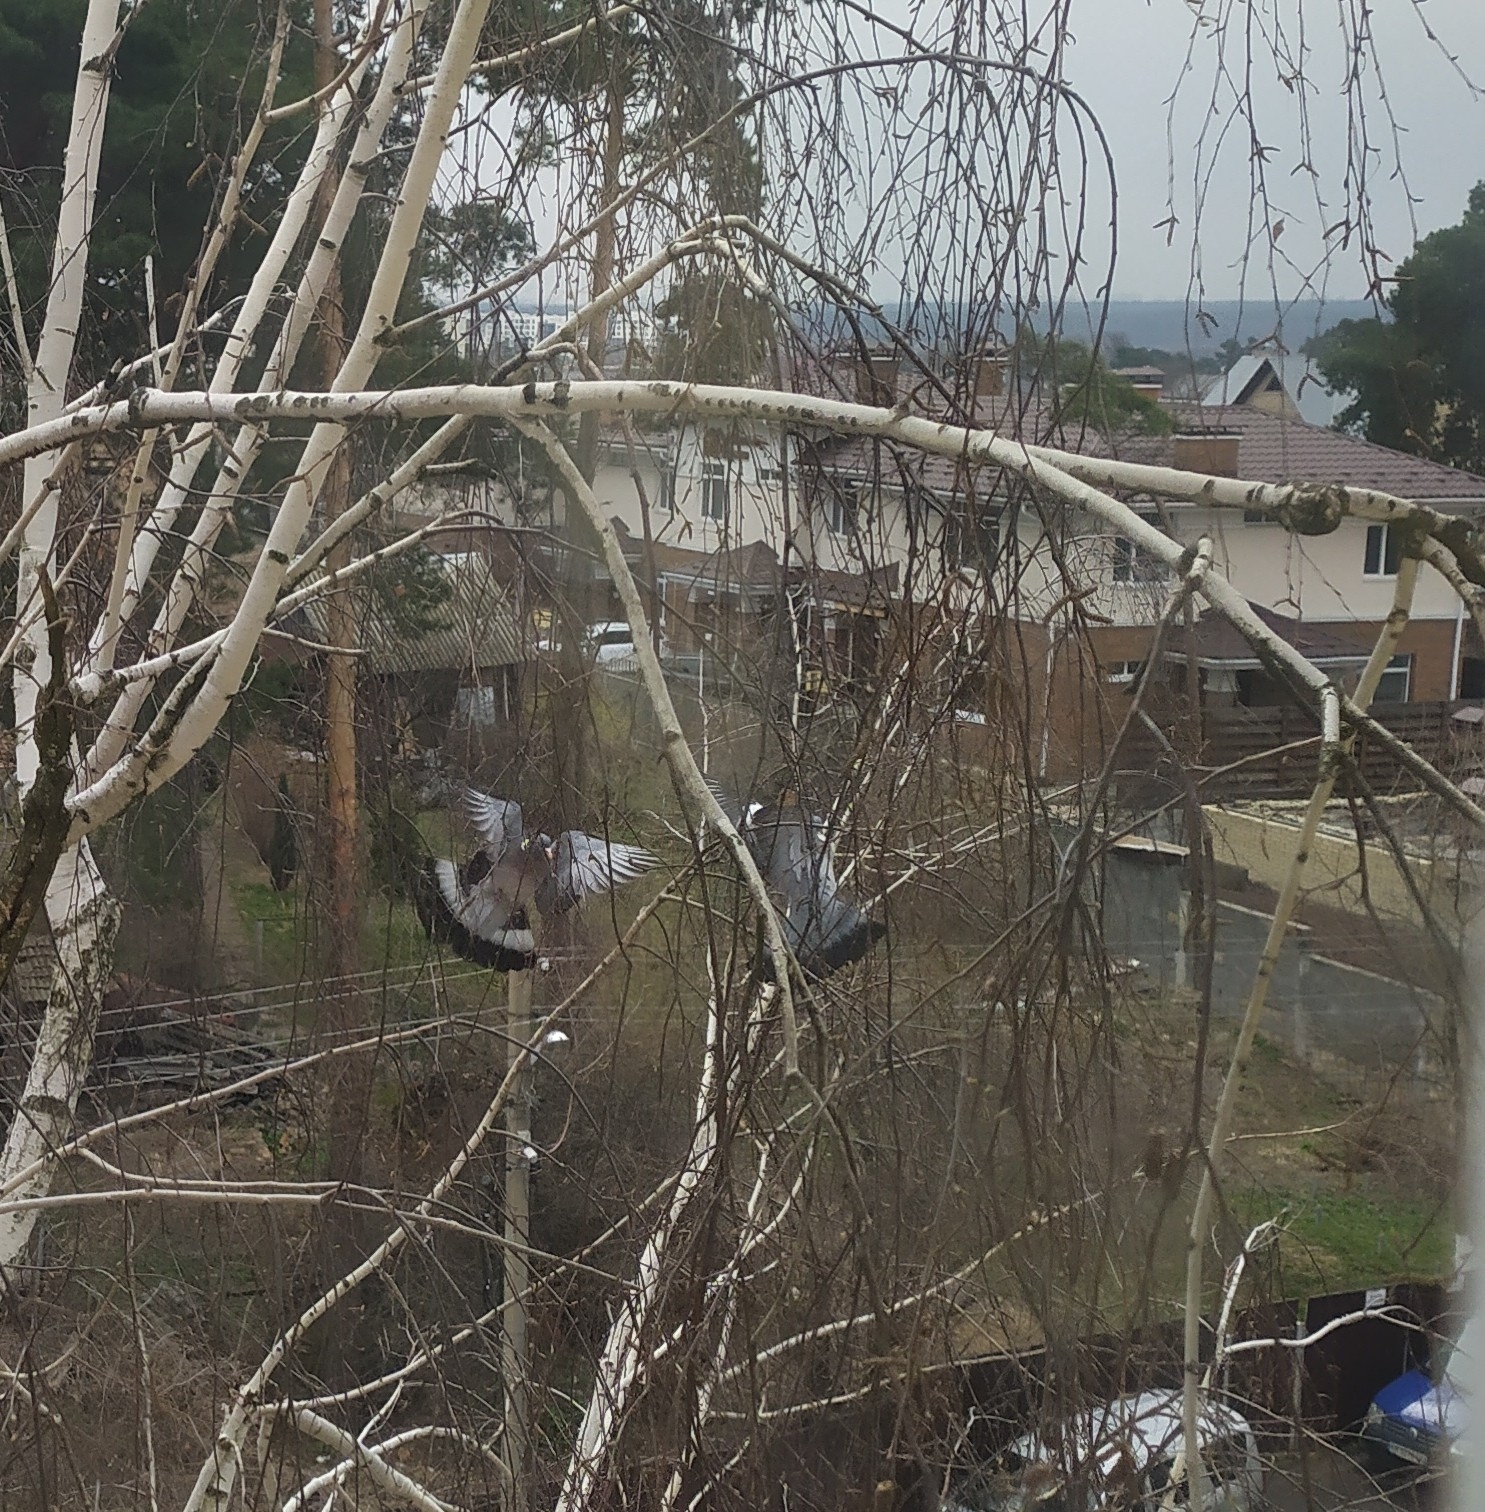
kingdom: Animalia
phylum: Chordata
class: Aves
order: Columbiformes
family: Columbidae
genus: Columba
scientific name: Columba palumbus
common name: Common wood pigeon
